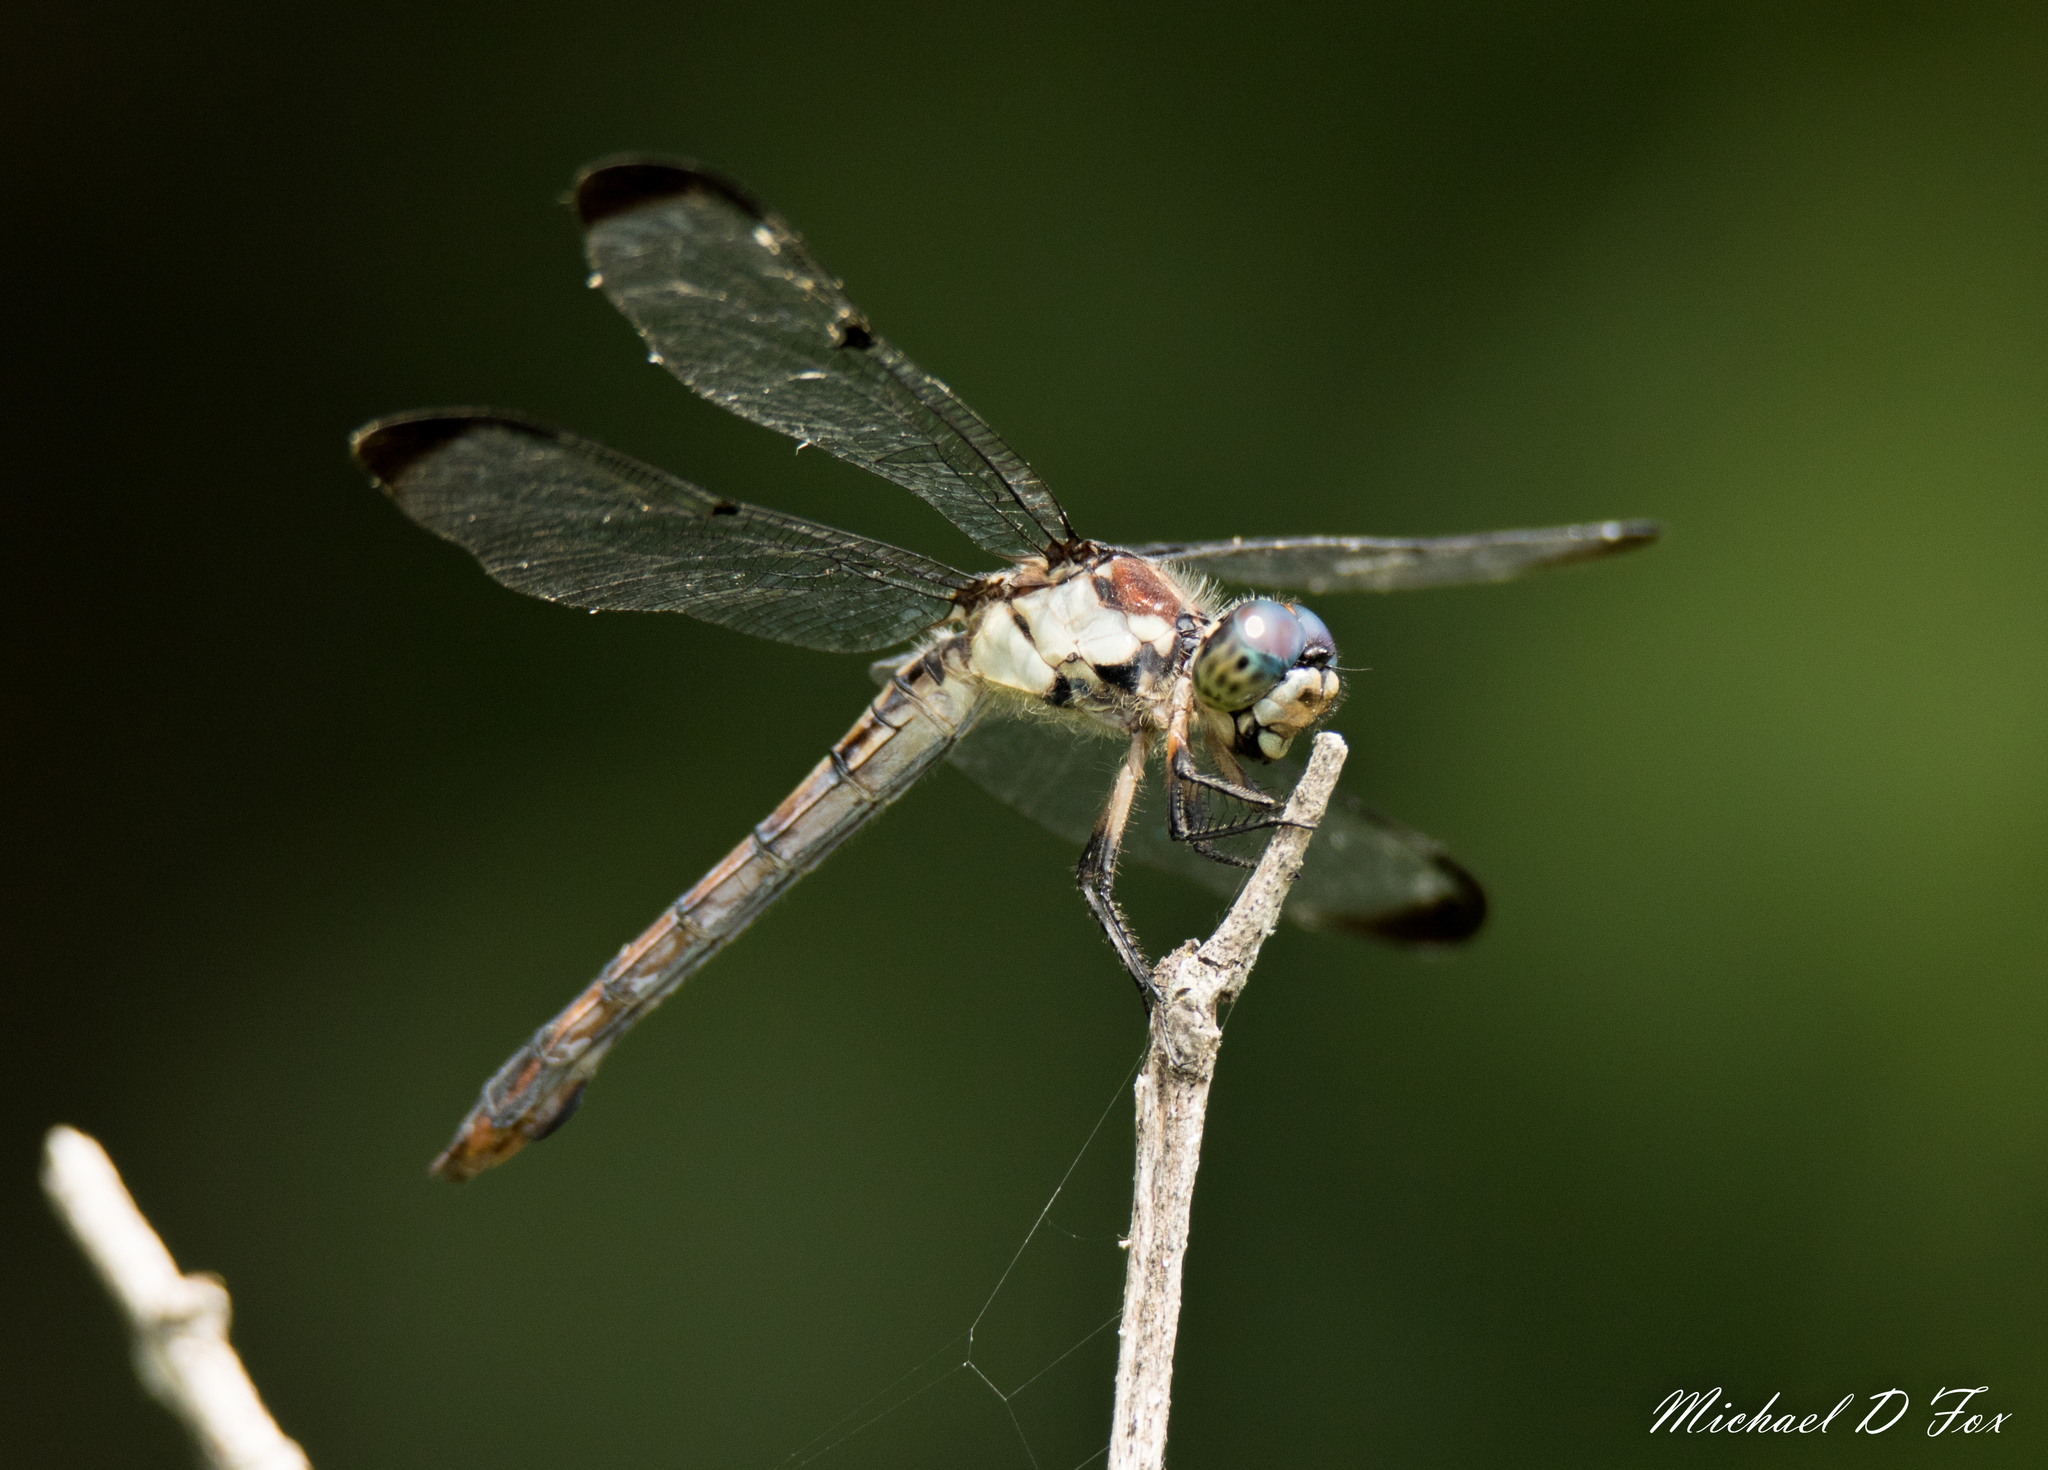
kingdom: Animalia
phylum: Arthropoda
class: Insecta
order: Odonata
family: Libellulidae
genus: Libellula
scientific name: Libellula vibrans
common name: Great blue skimmer
